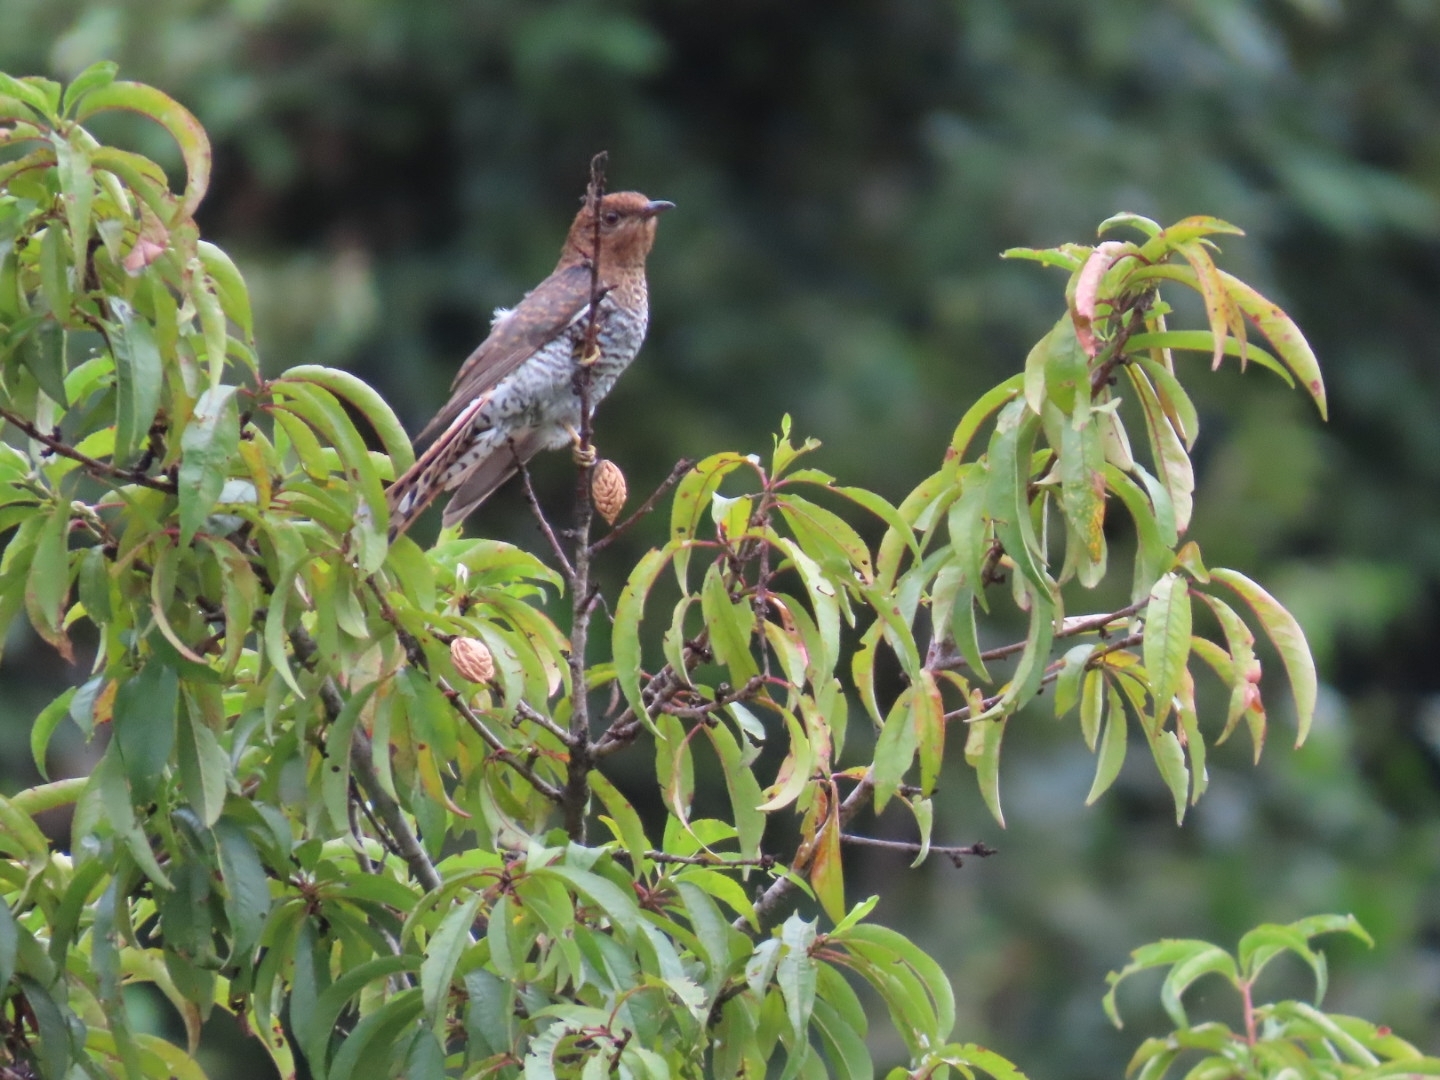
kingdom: Animalia
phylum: Chordata
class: Aves
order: Cuculiformes
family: Cuculidae
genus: Cacomantis
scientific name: Cacomantis passerinus
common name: Grey-bellied cuckoo
